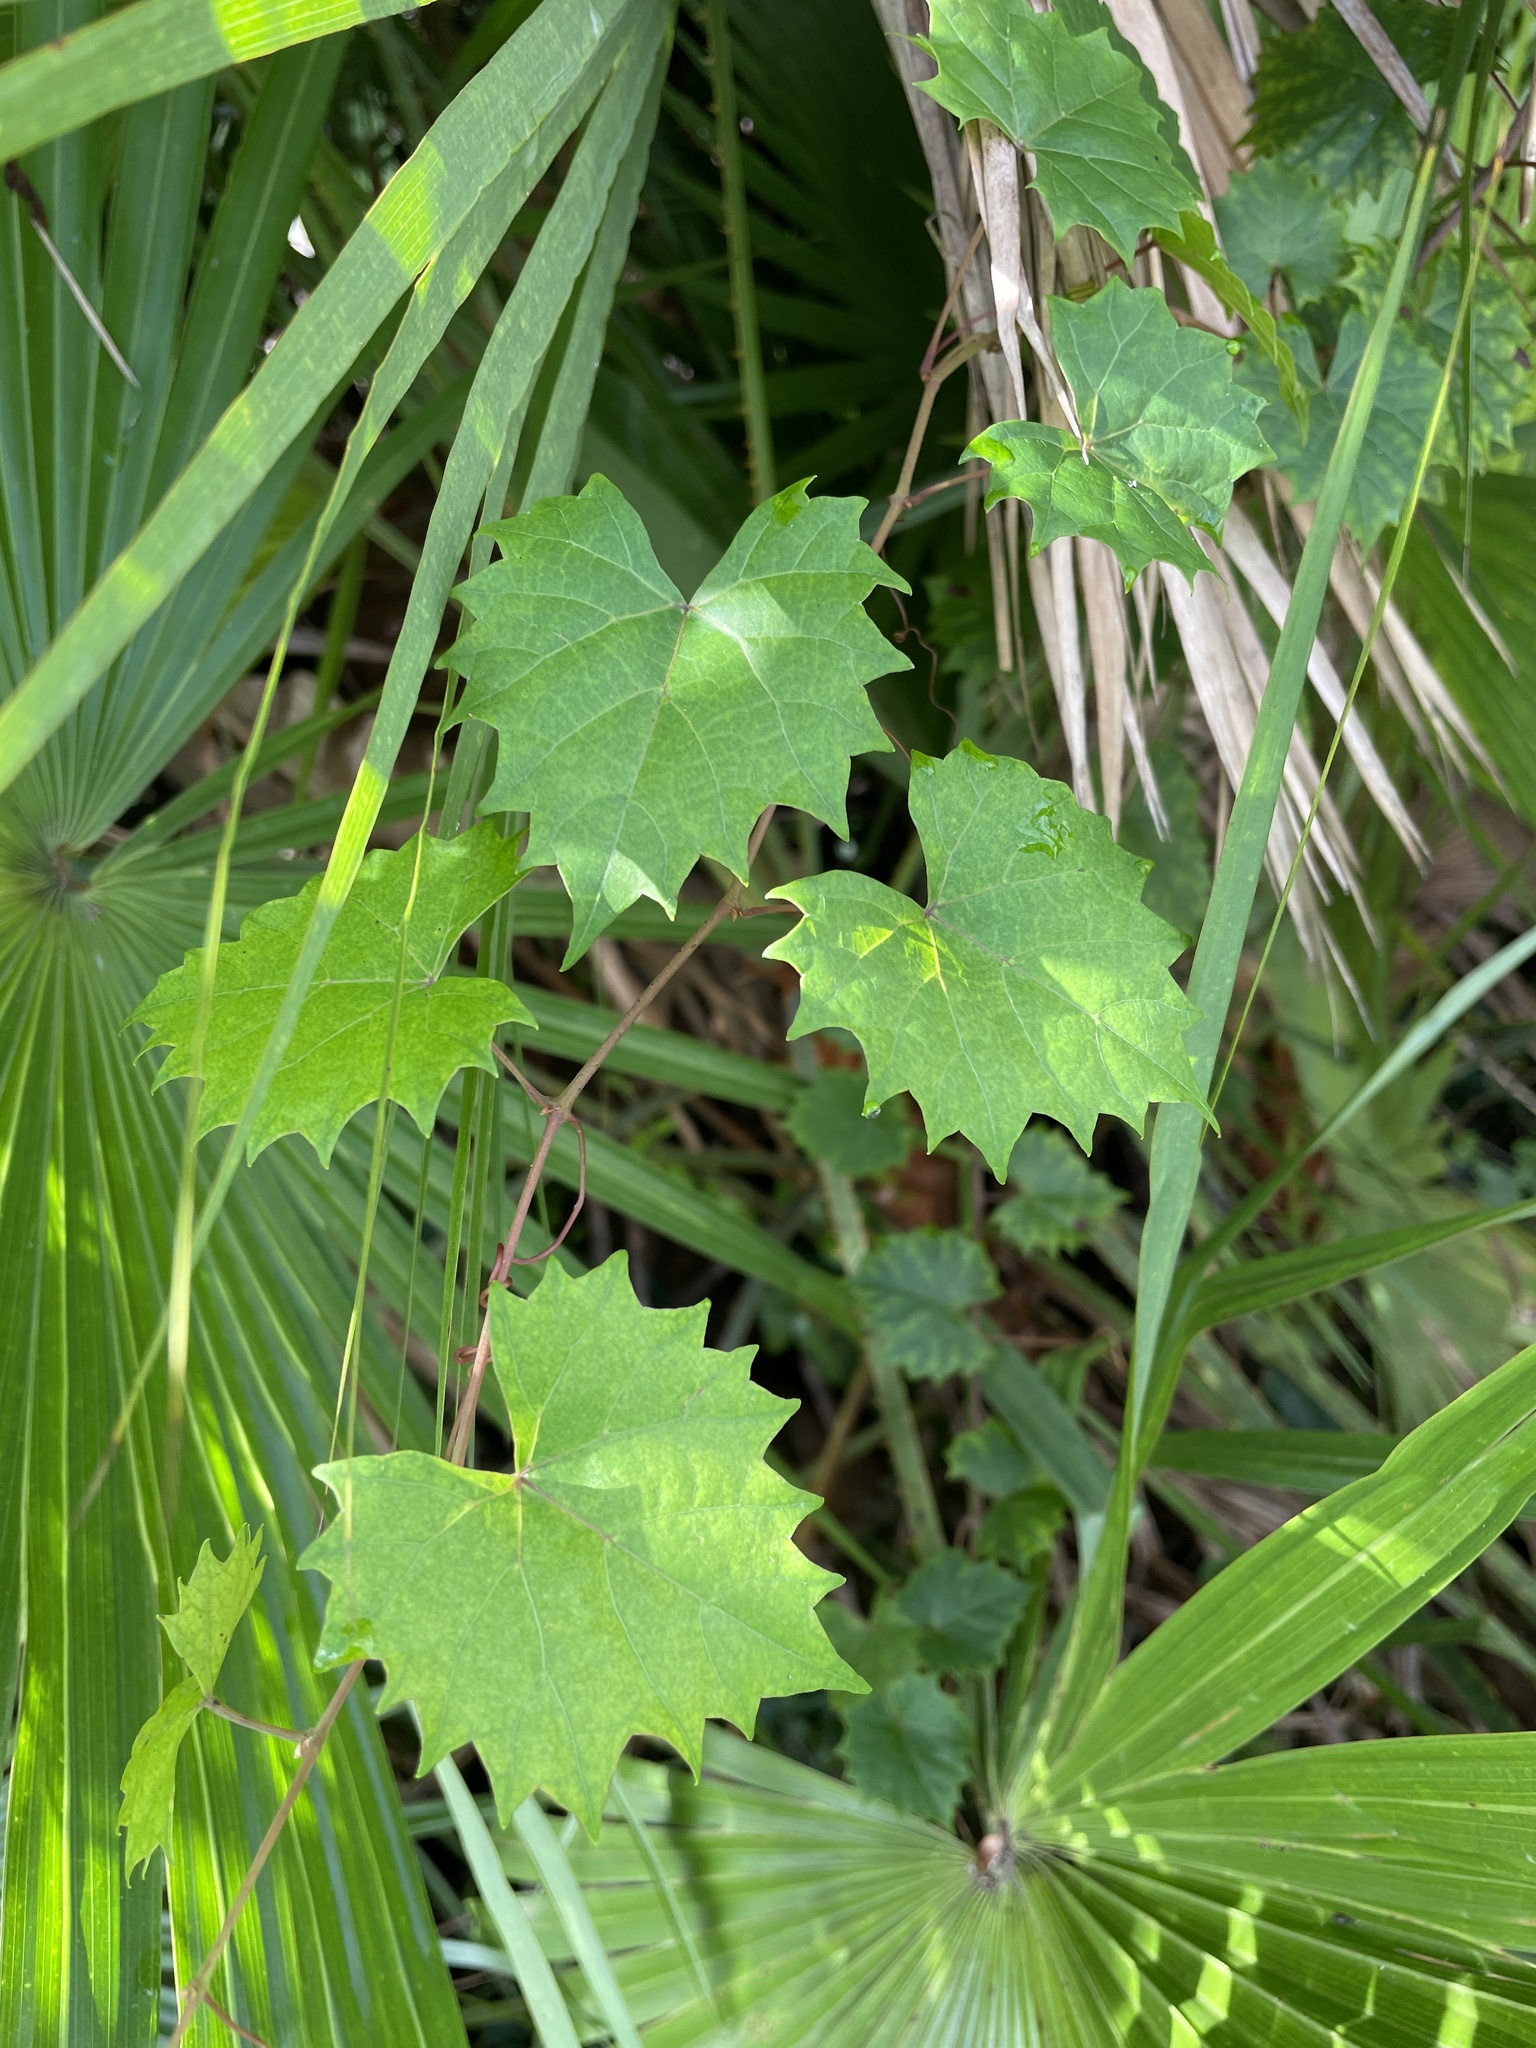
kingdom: Plantae
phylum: Tracheophyta
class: Magnoliopsida
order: Vitales
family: Vitaceae
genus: Vitis
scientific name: Vitis rotundifolia
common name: Muscadine grape
